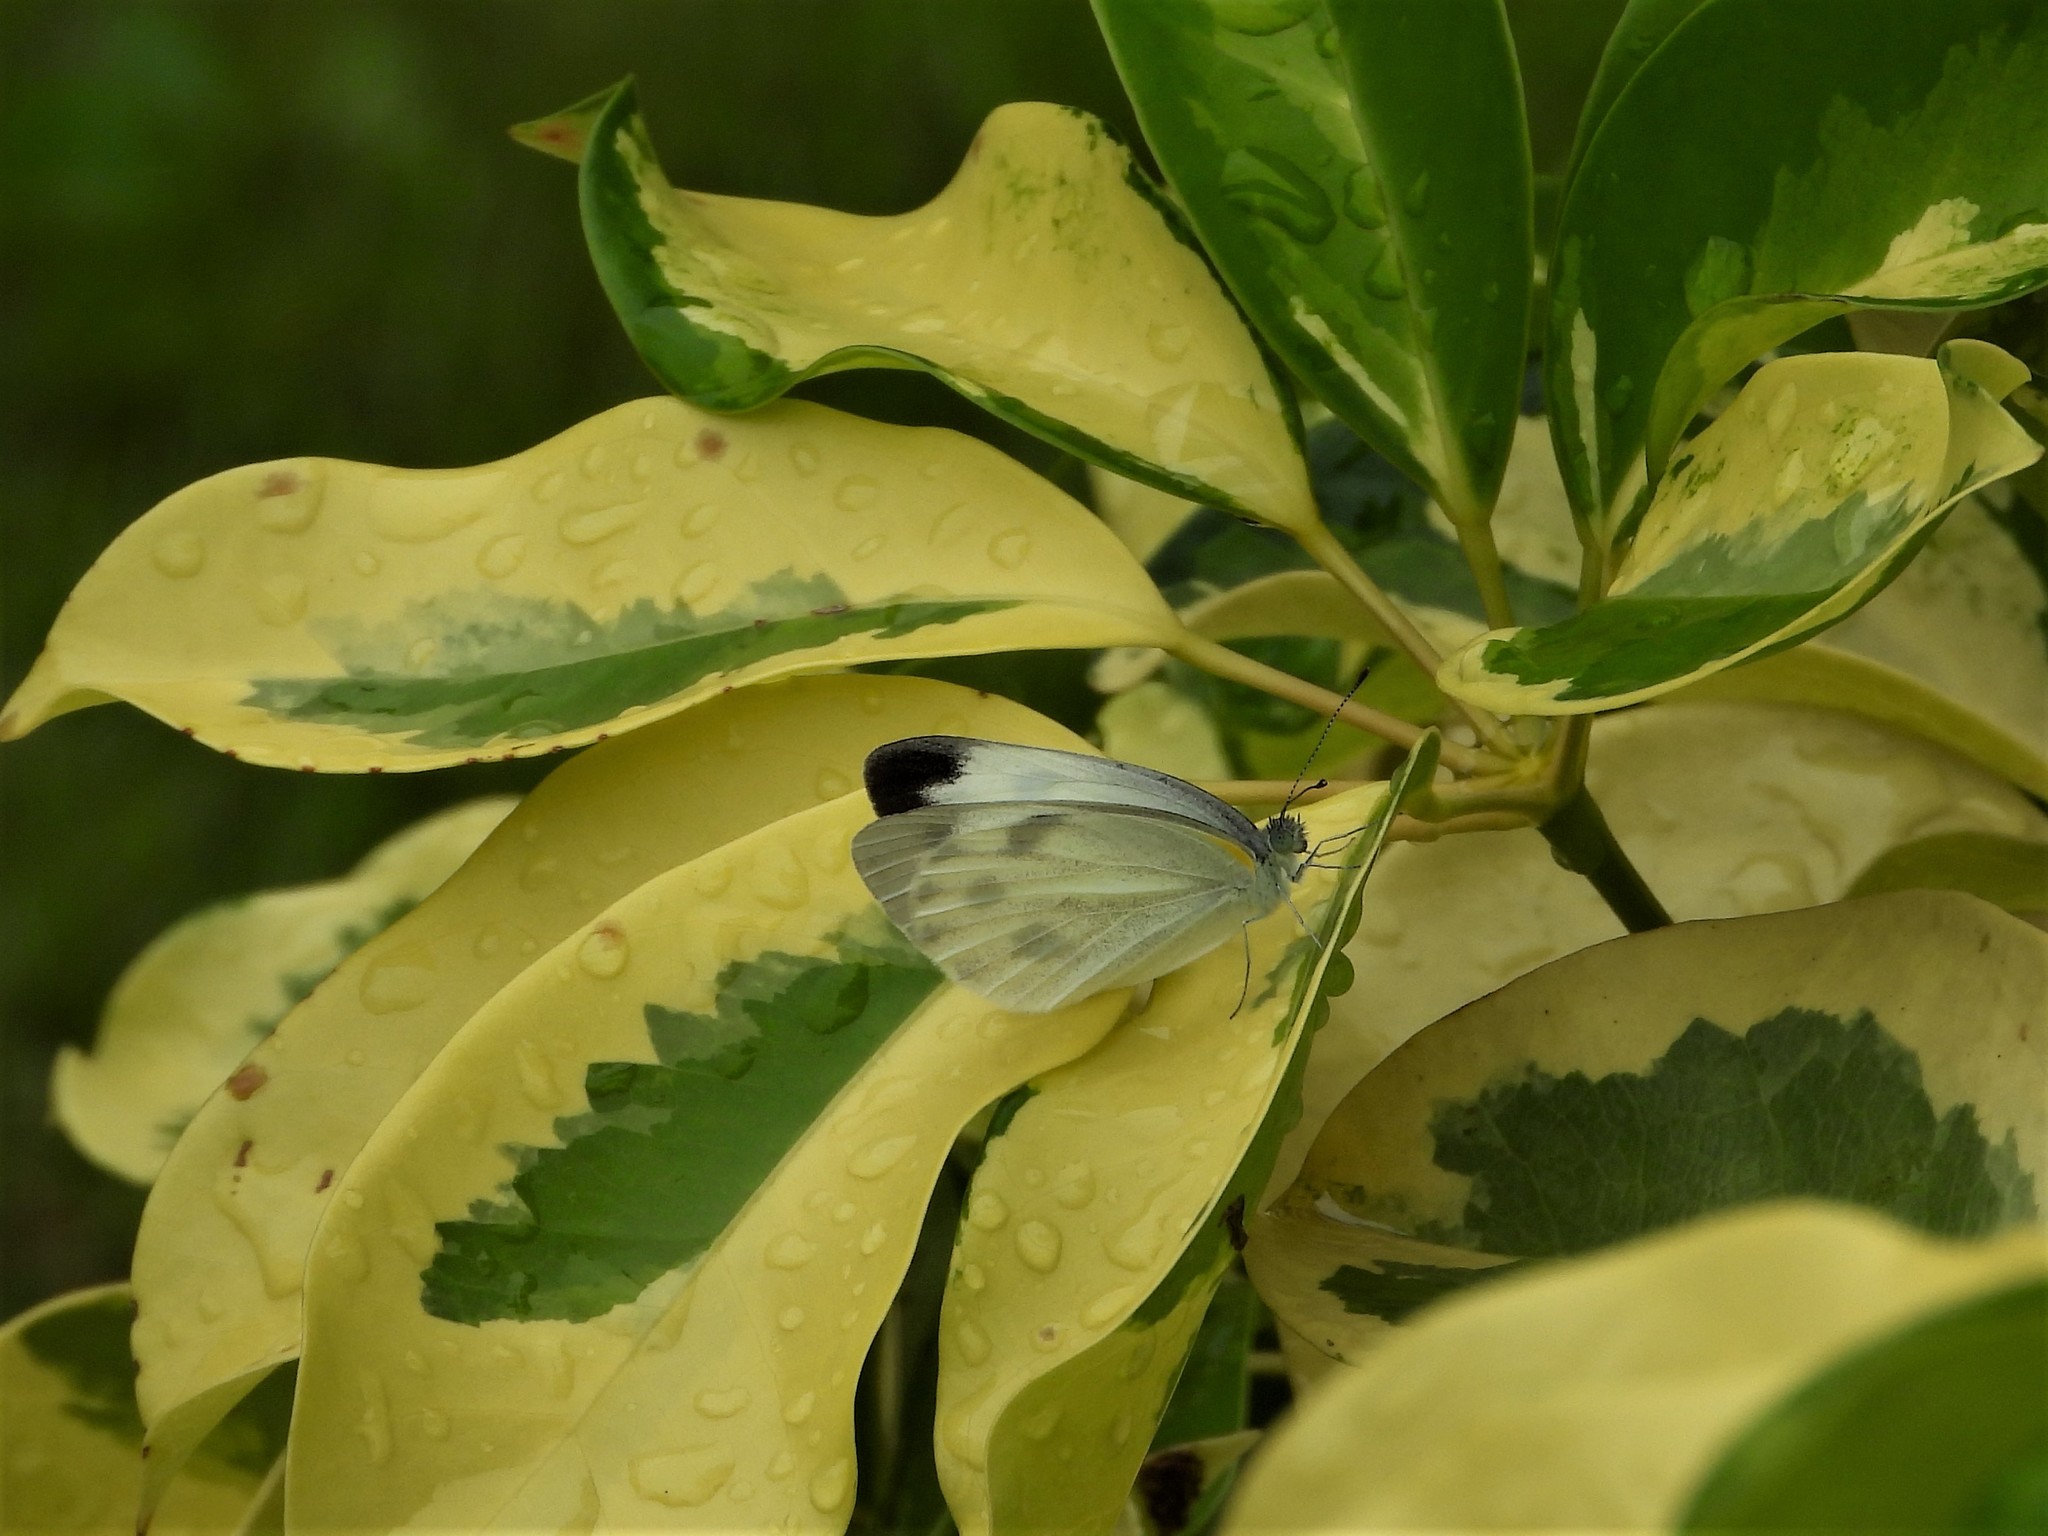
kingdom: Animalia
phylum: Arthropoda
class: Insecta
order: Lepidoptera
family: Pieridae
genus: Pieris
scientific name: Pieris canidia
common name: Indian cabbage white
